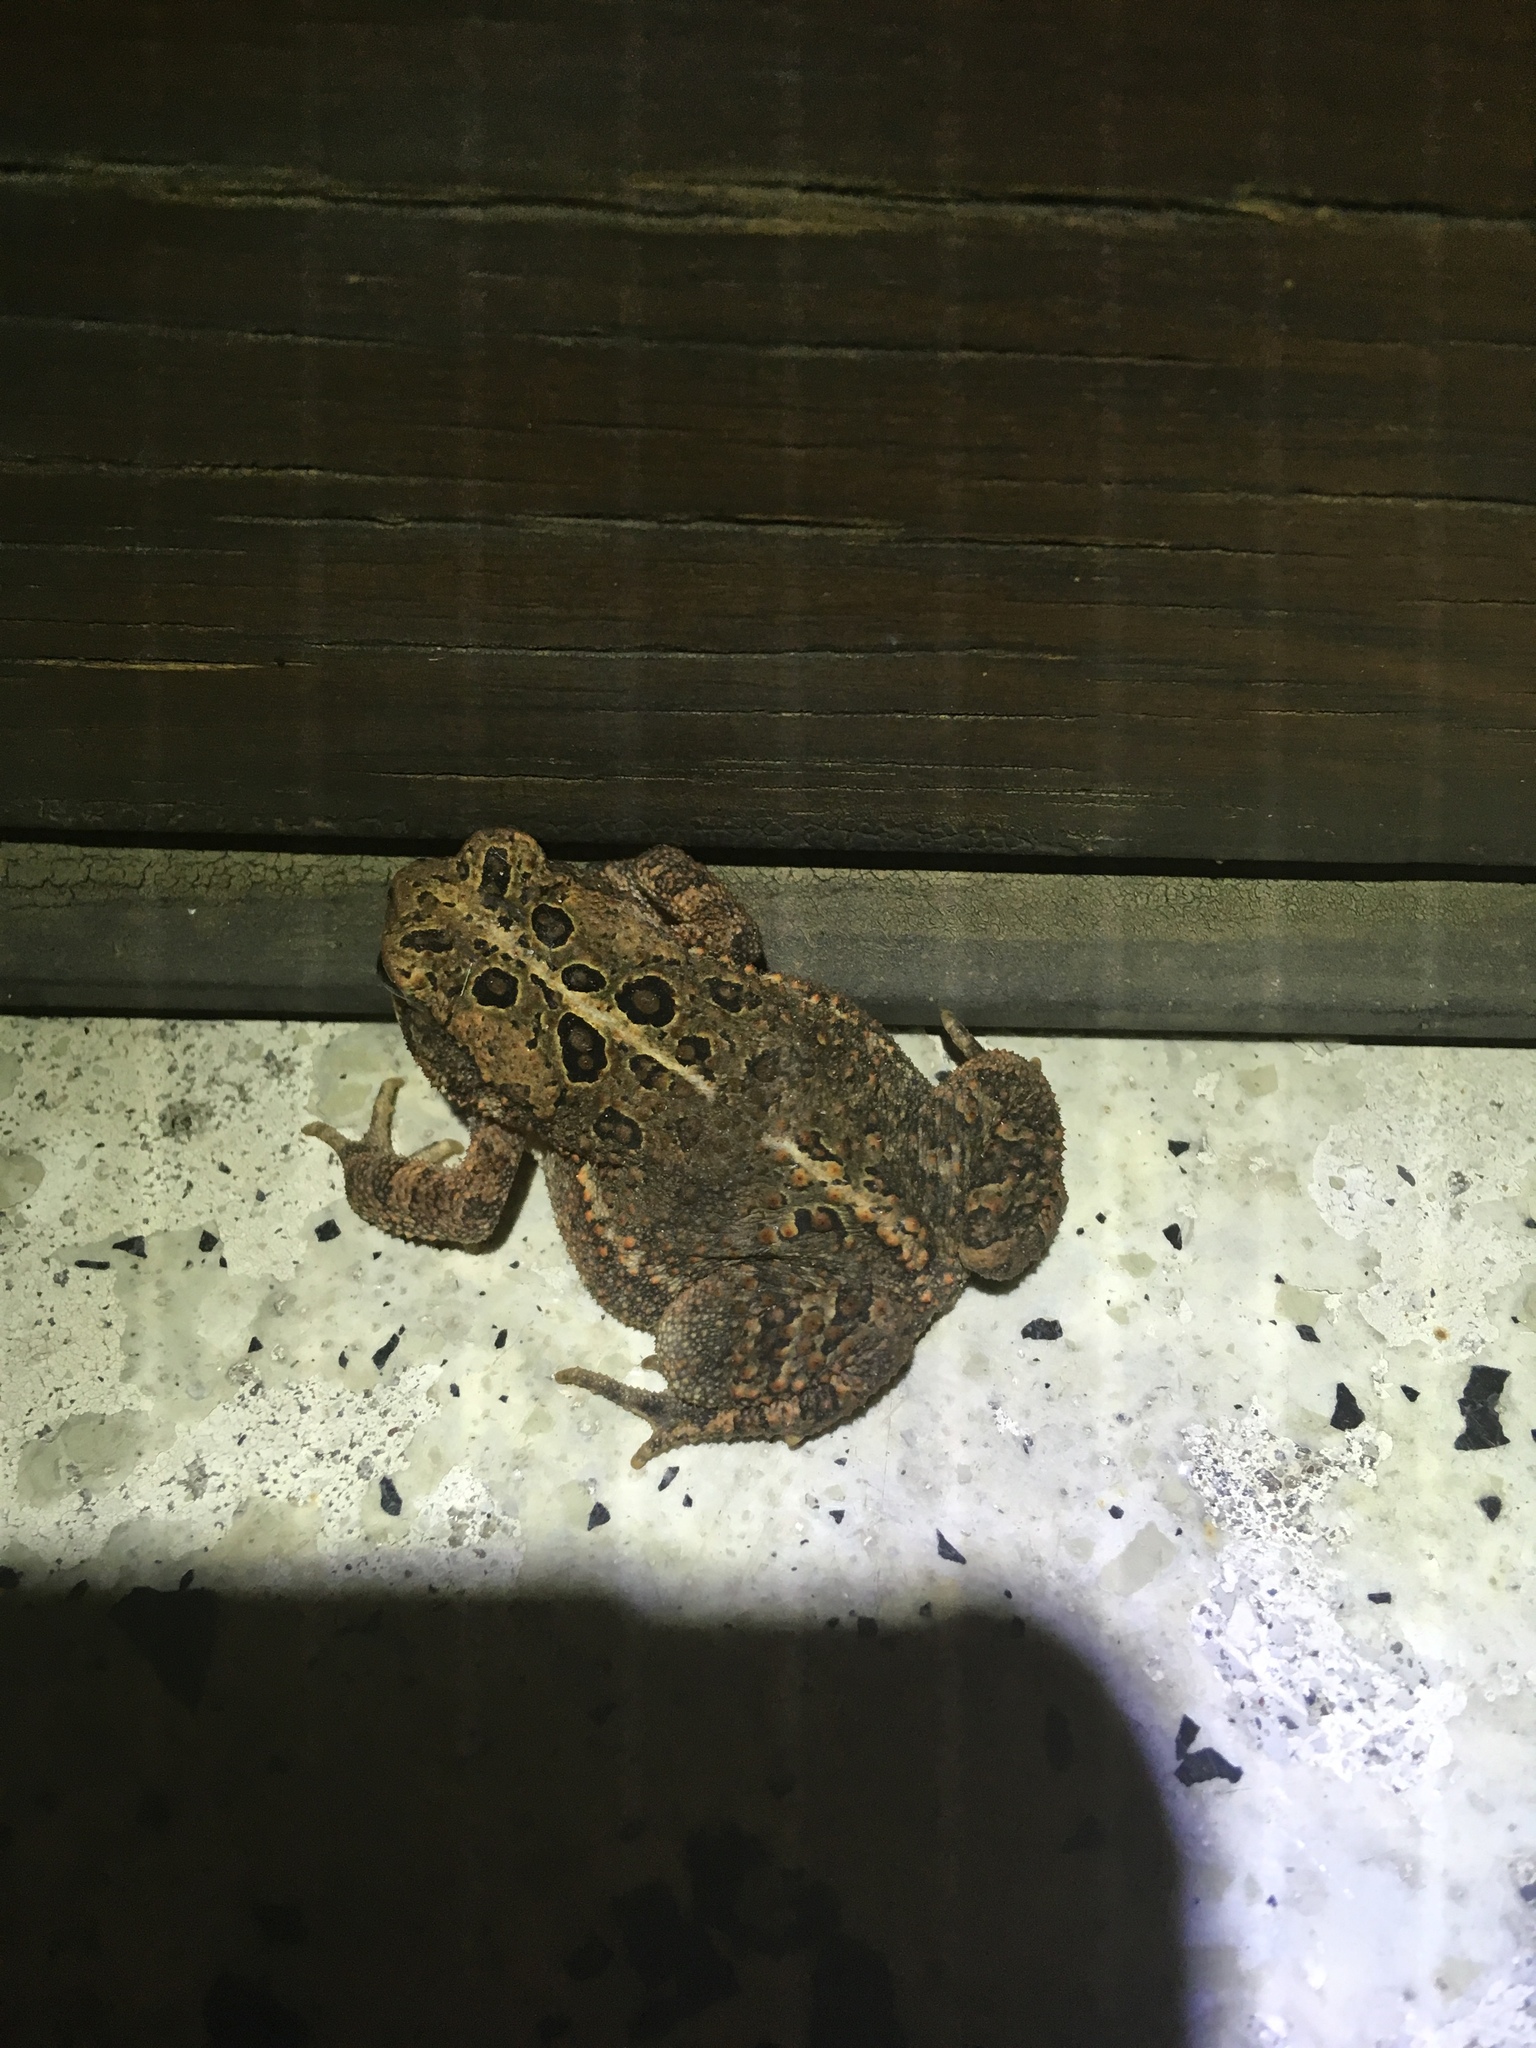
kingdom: Animalia
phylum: Chordata
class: Amphibia
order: Anura
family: Bufonidae
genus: Anaxyrus
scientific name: Anaxyrus americanus
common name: American toad
